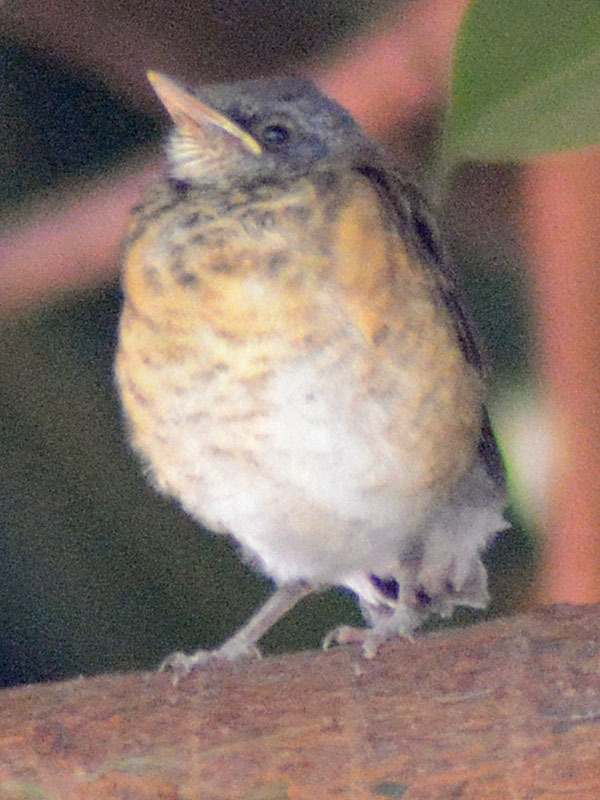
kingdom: Animalia
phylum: Chordata
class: Aves
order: Passeriformes
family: Turdidae
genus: Turdus
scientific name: Turdus rufopalliatus
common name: Rufous-backed robin
